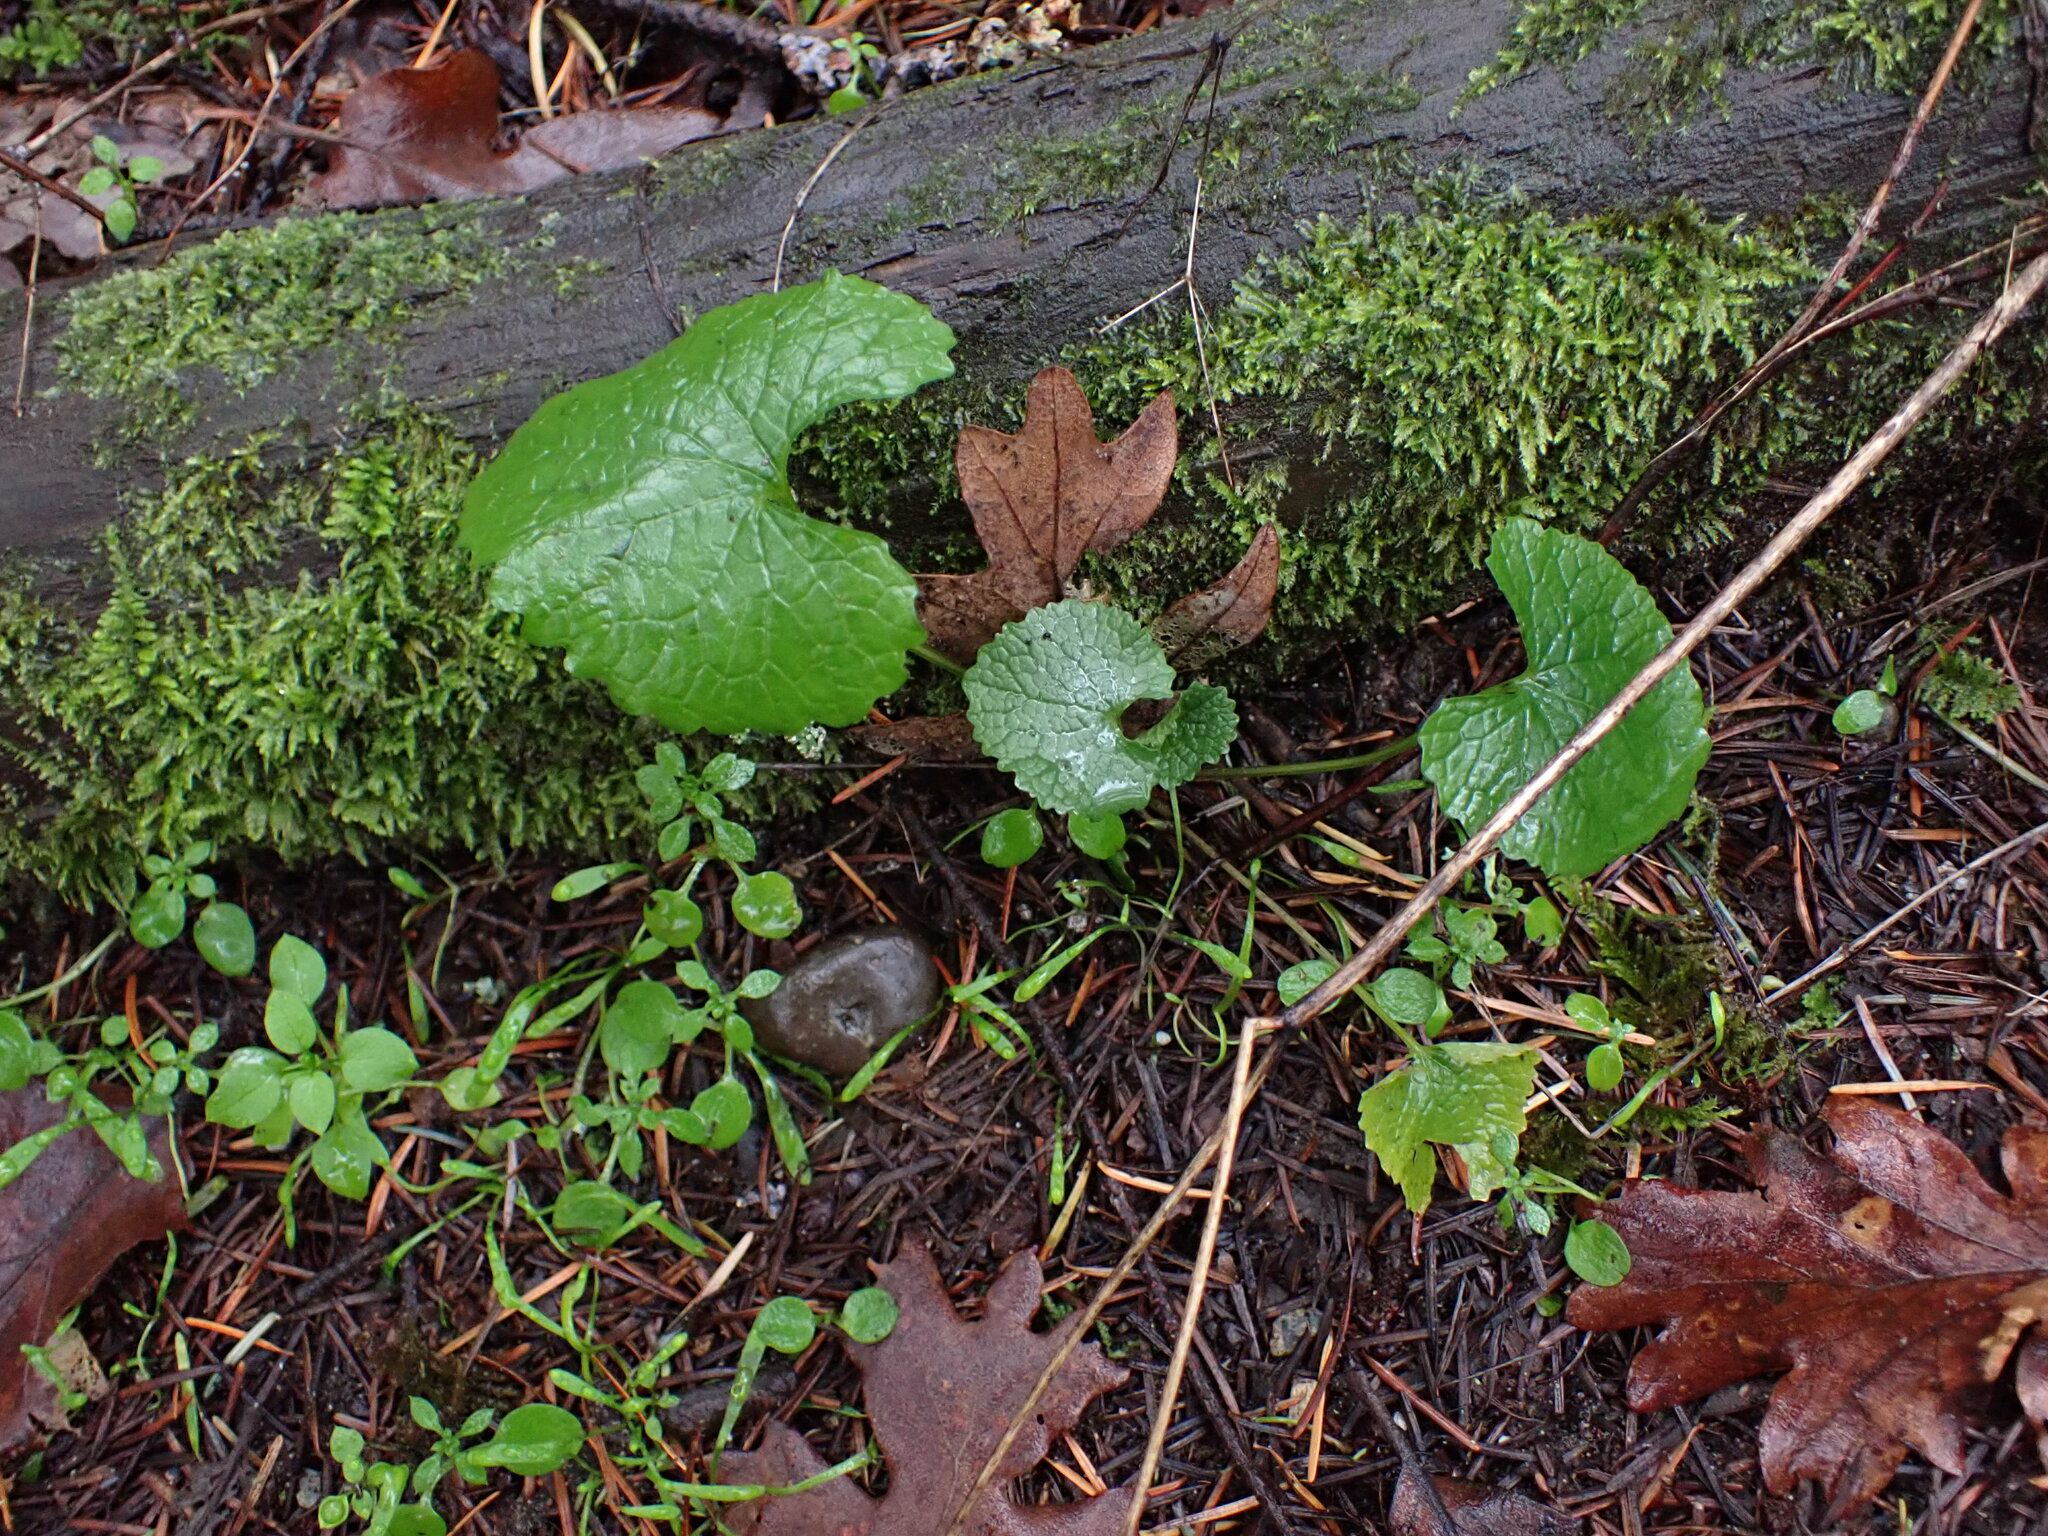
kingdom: Plantae
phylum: Tracheophyta
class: Magnoliopsida
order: Brassicales
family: Brassicaceae
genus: Alliaria
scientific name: Alliaria petiolata
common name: Garlic mustard
